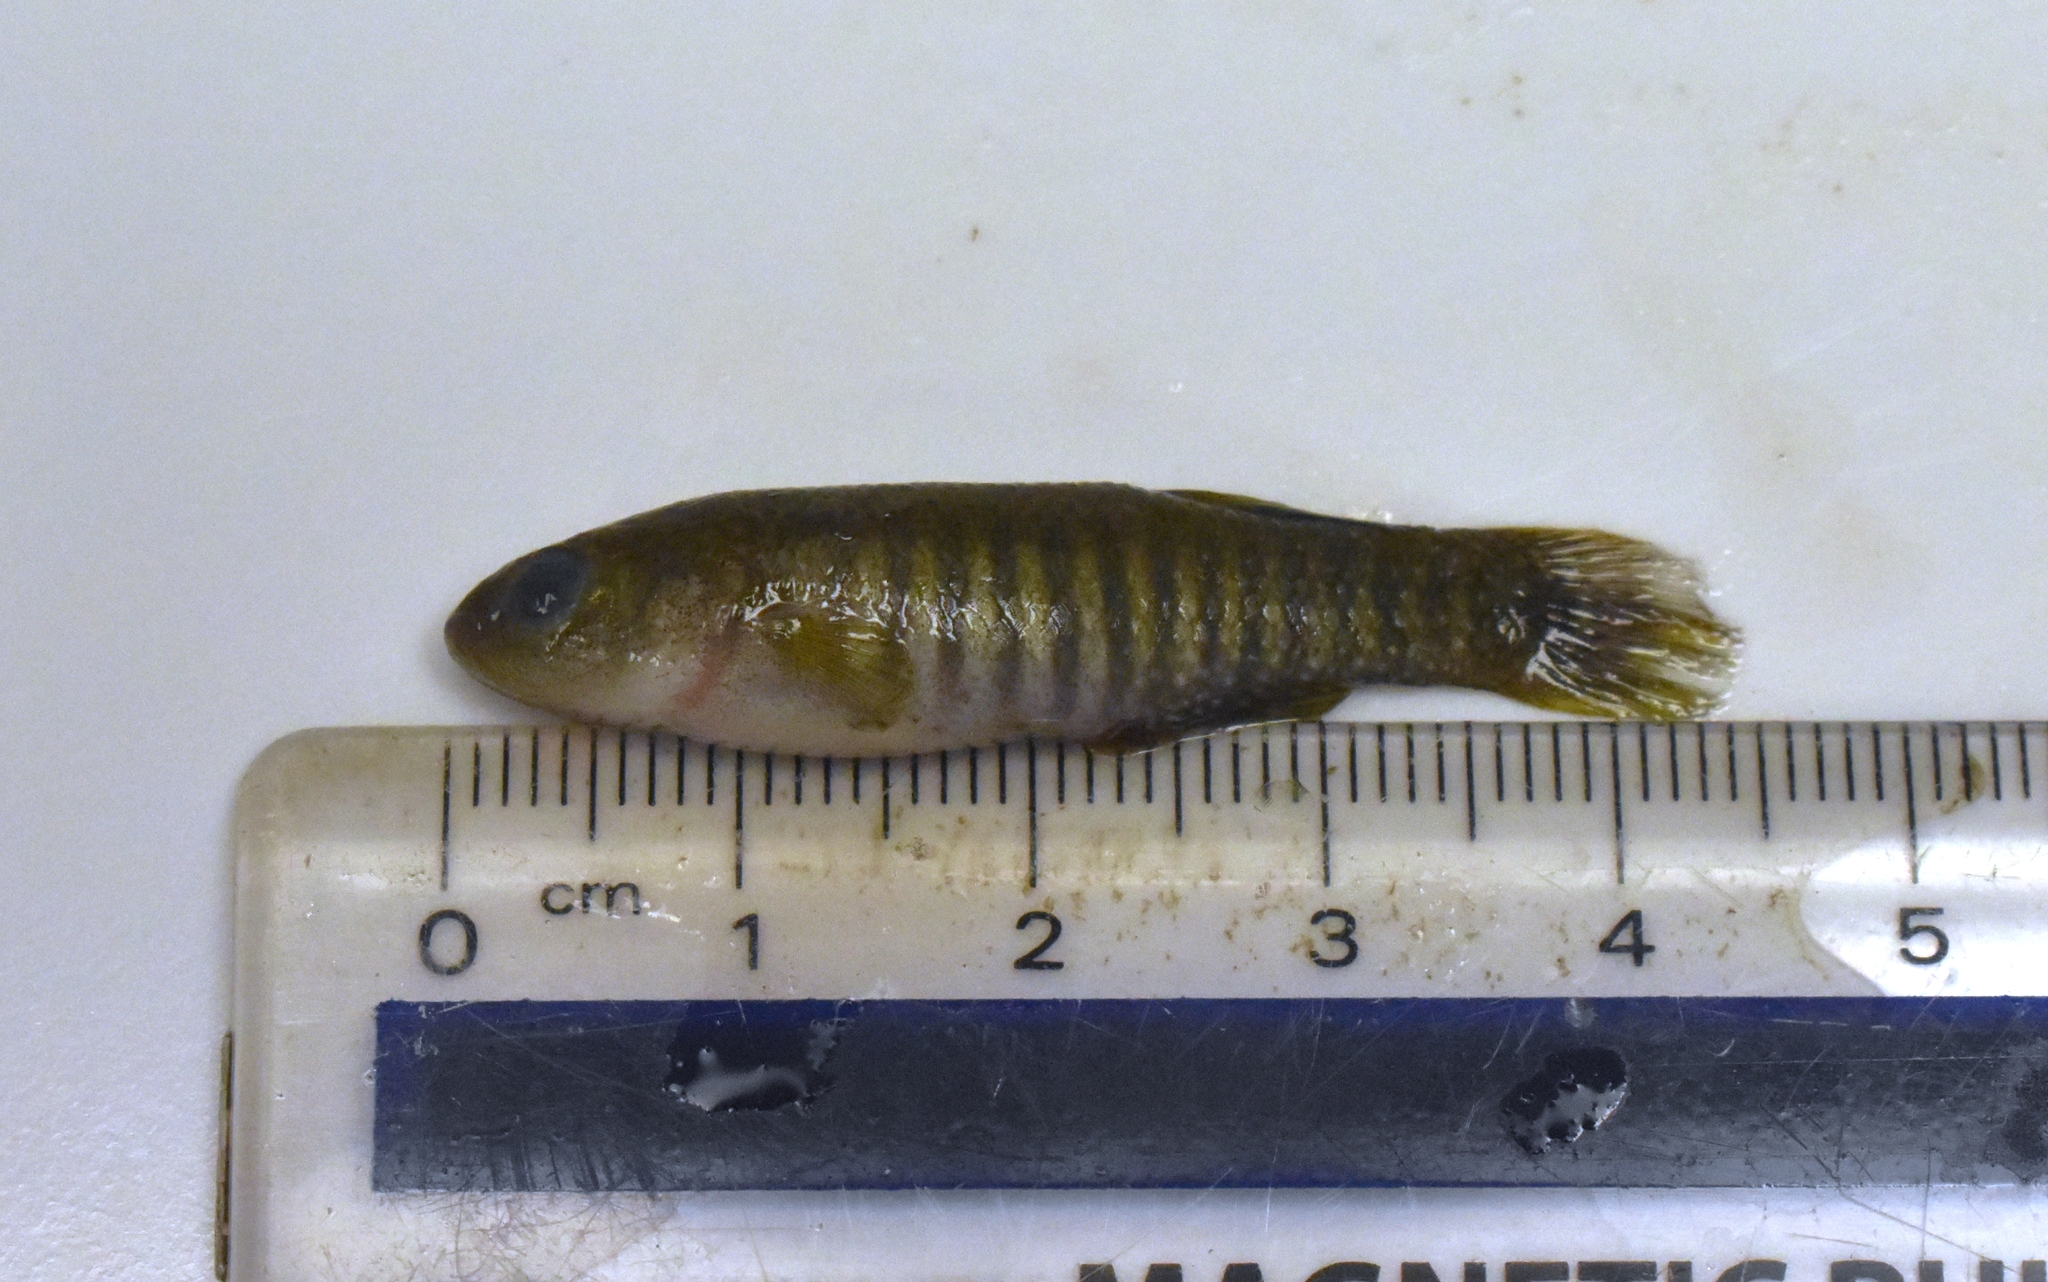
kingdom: Animalia
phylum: Chordata
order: Cyprinodontiformes
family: Fundulidae
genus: Fundulus
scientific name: Fundulus pulvereus
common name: Bayou killifish
